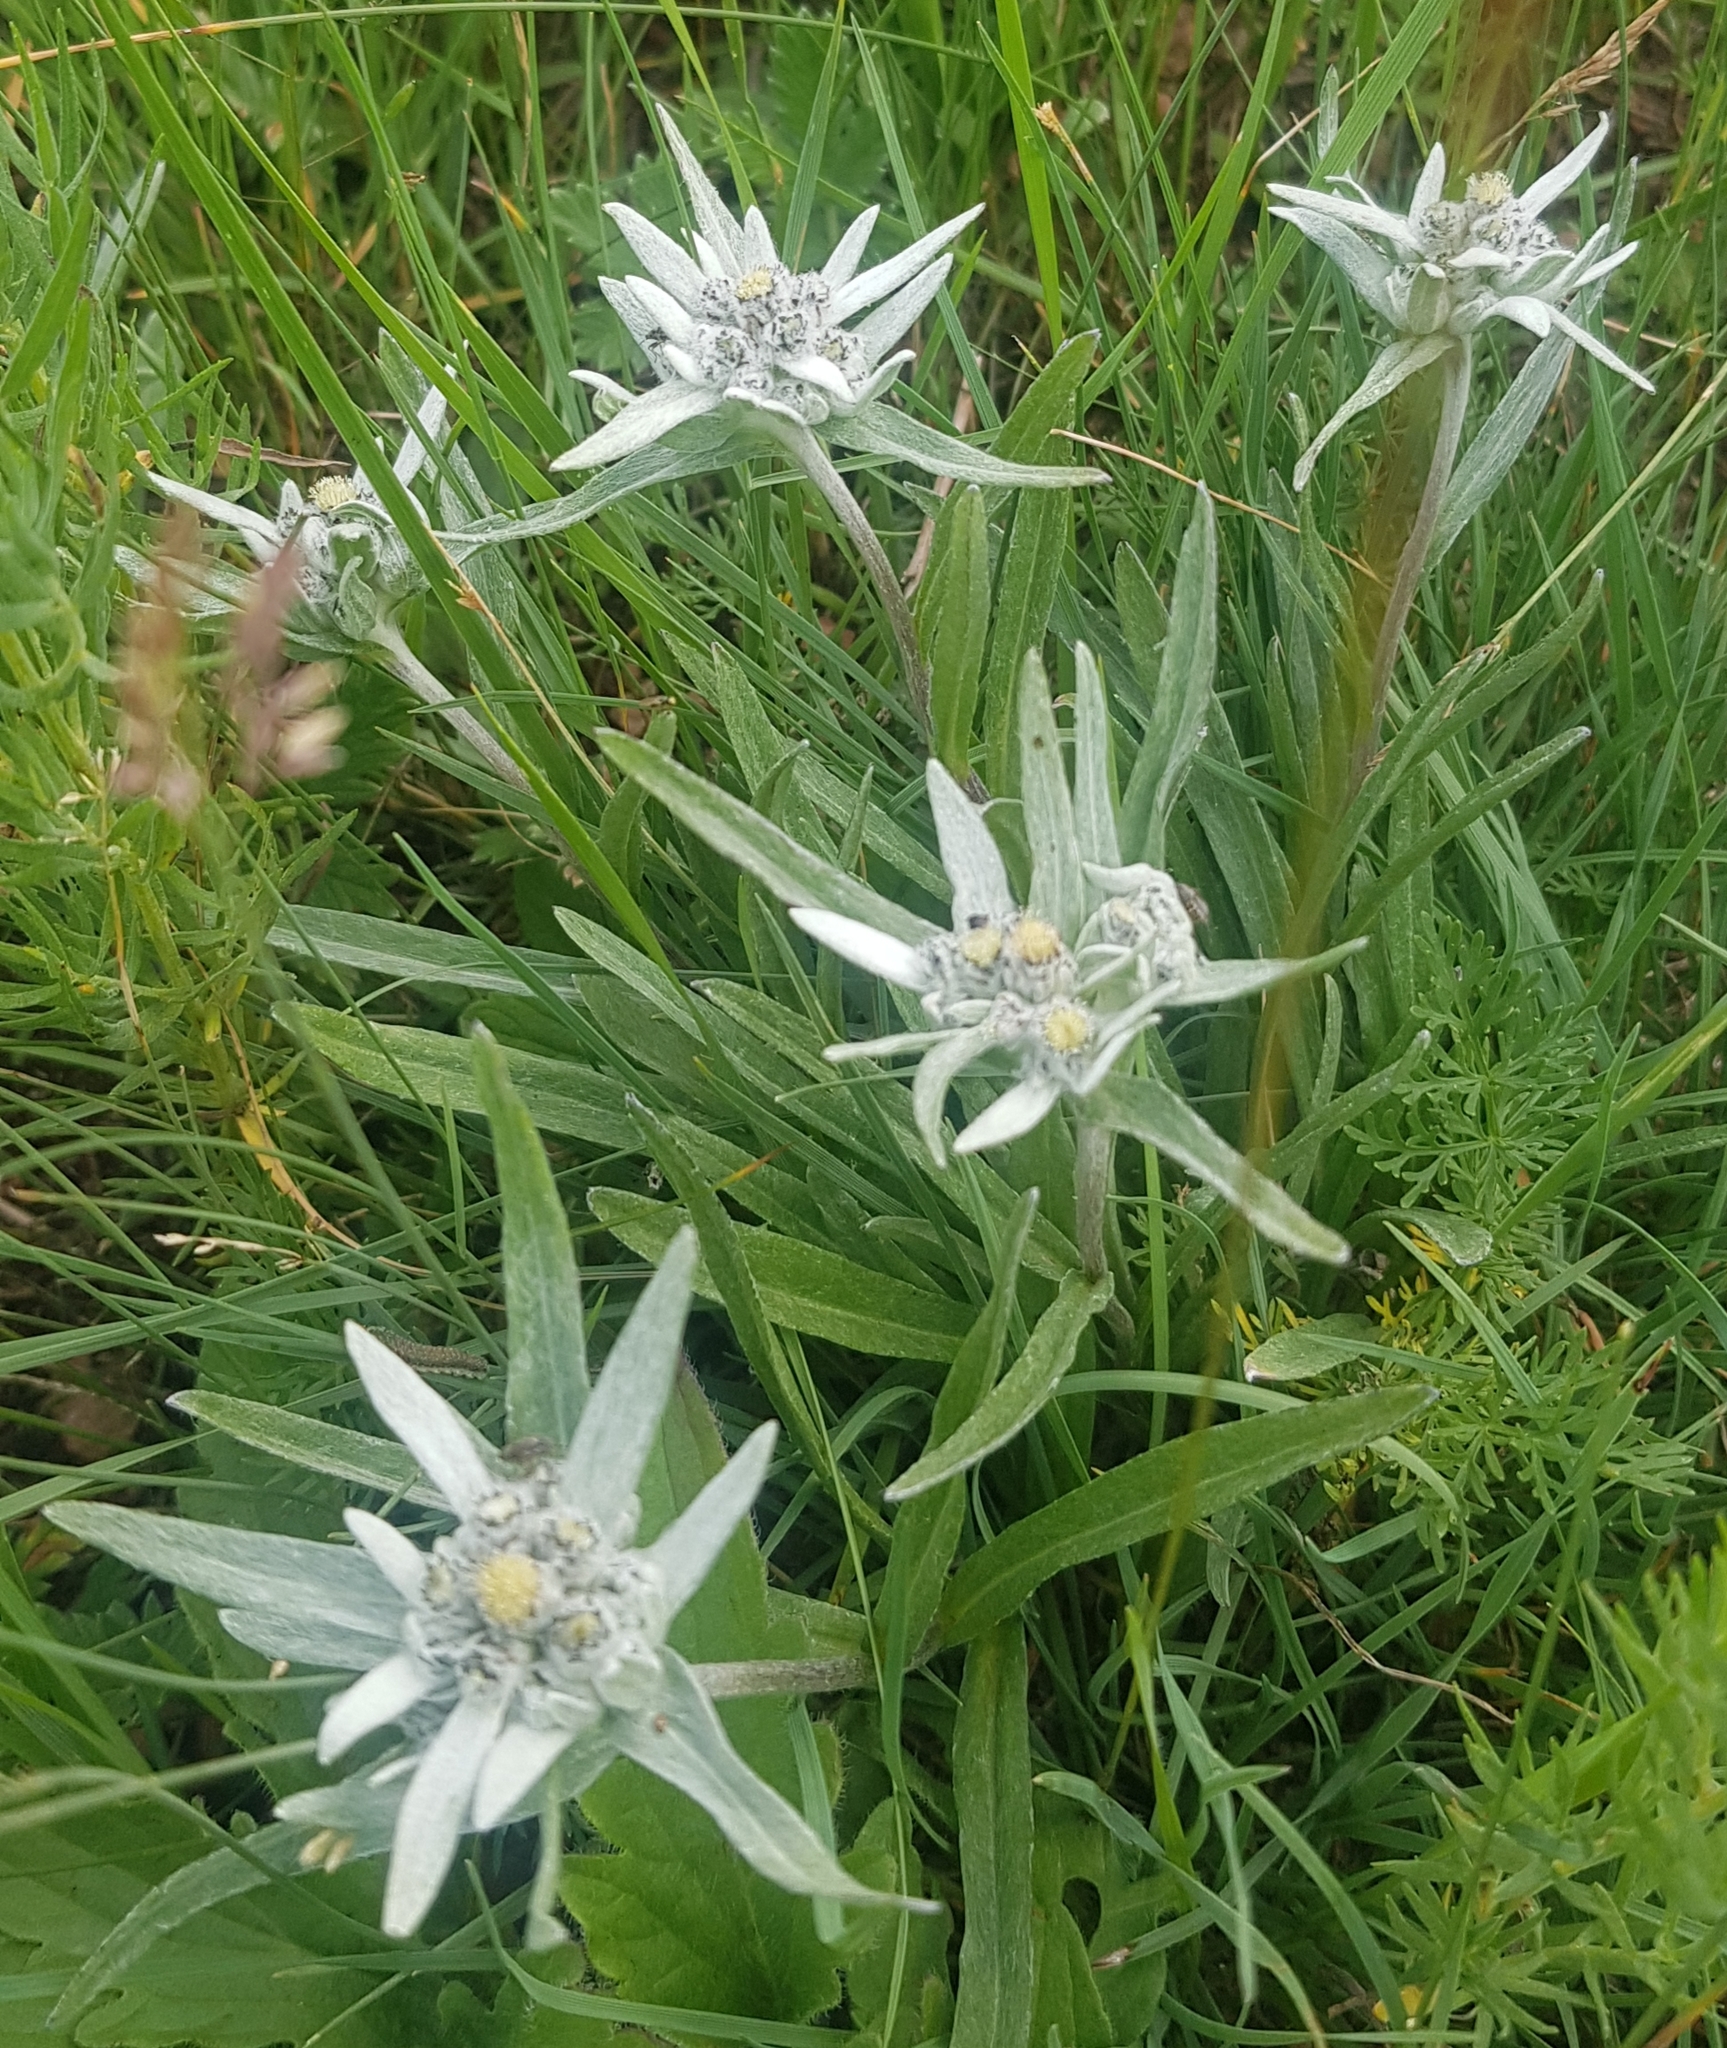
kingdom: Plantae
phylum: Tracheophyta
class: Magnoliopsida
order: Asterales
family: Asteraceae
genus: Leontopodium
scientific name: Leontopodium campestre
